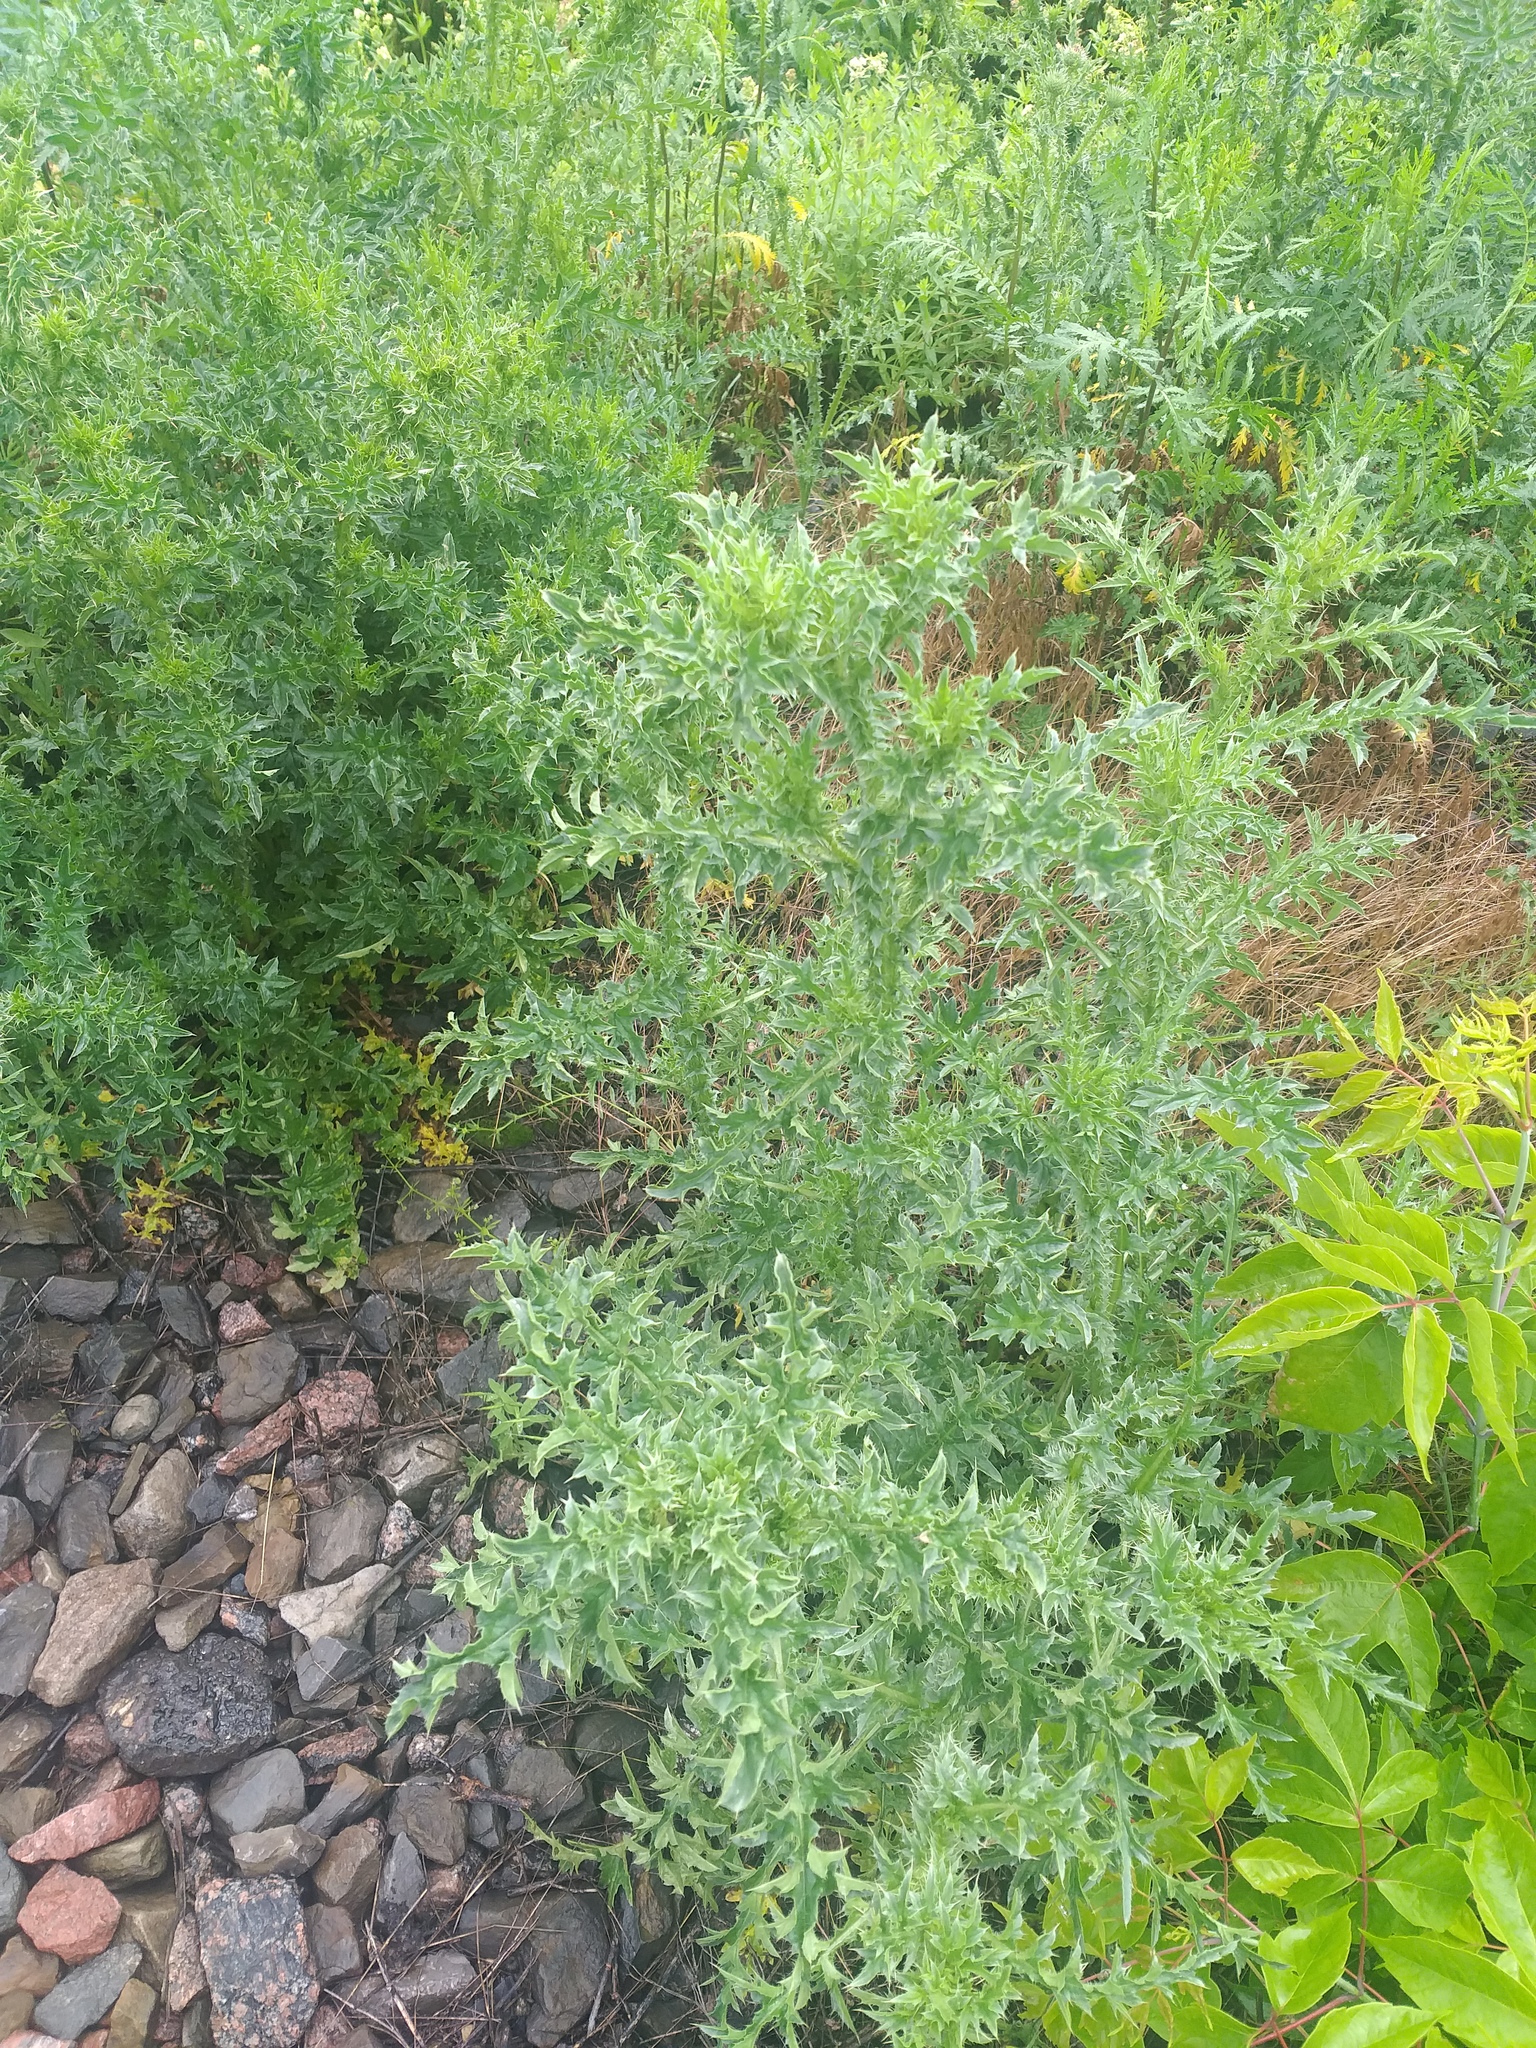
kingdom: Plantae
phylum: Tracheophyta
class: Magnoliopsida
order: Asterales
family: Asteraceae
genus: Carduus
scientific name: Carduus acanthoides
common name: Plumeless thistle
